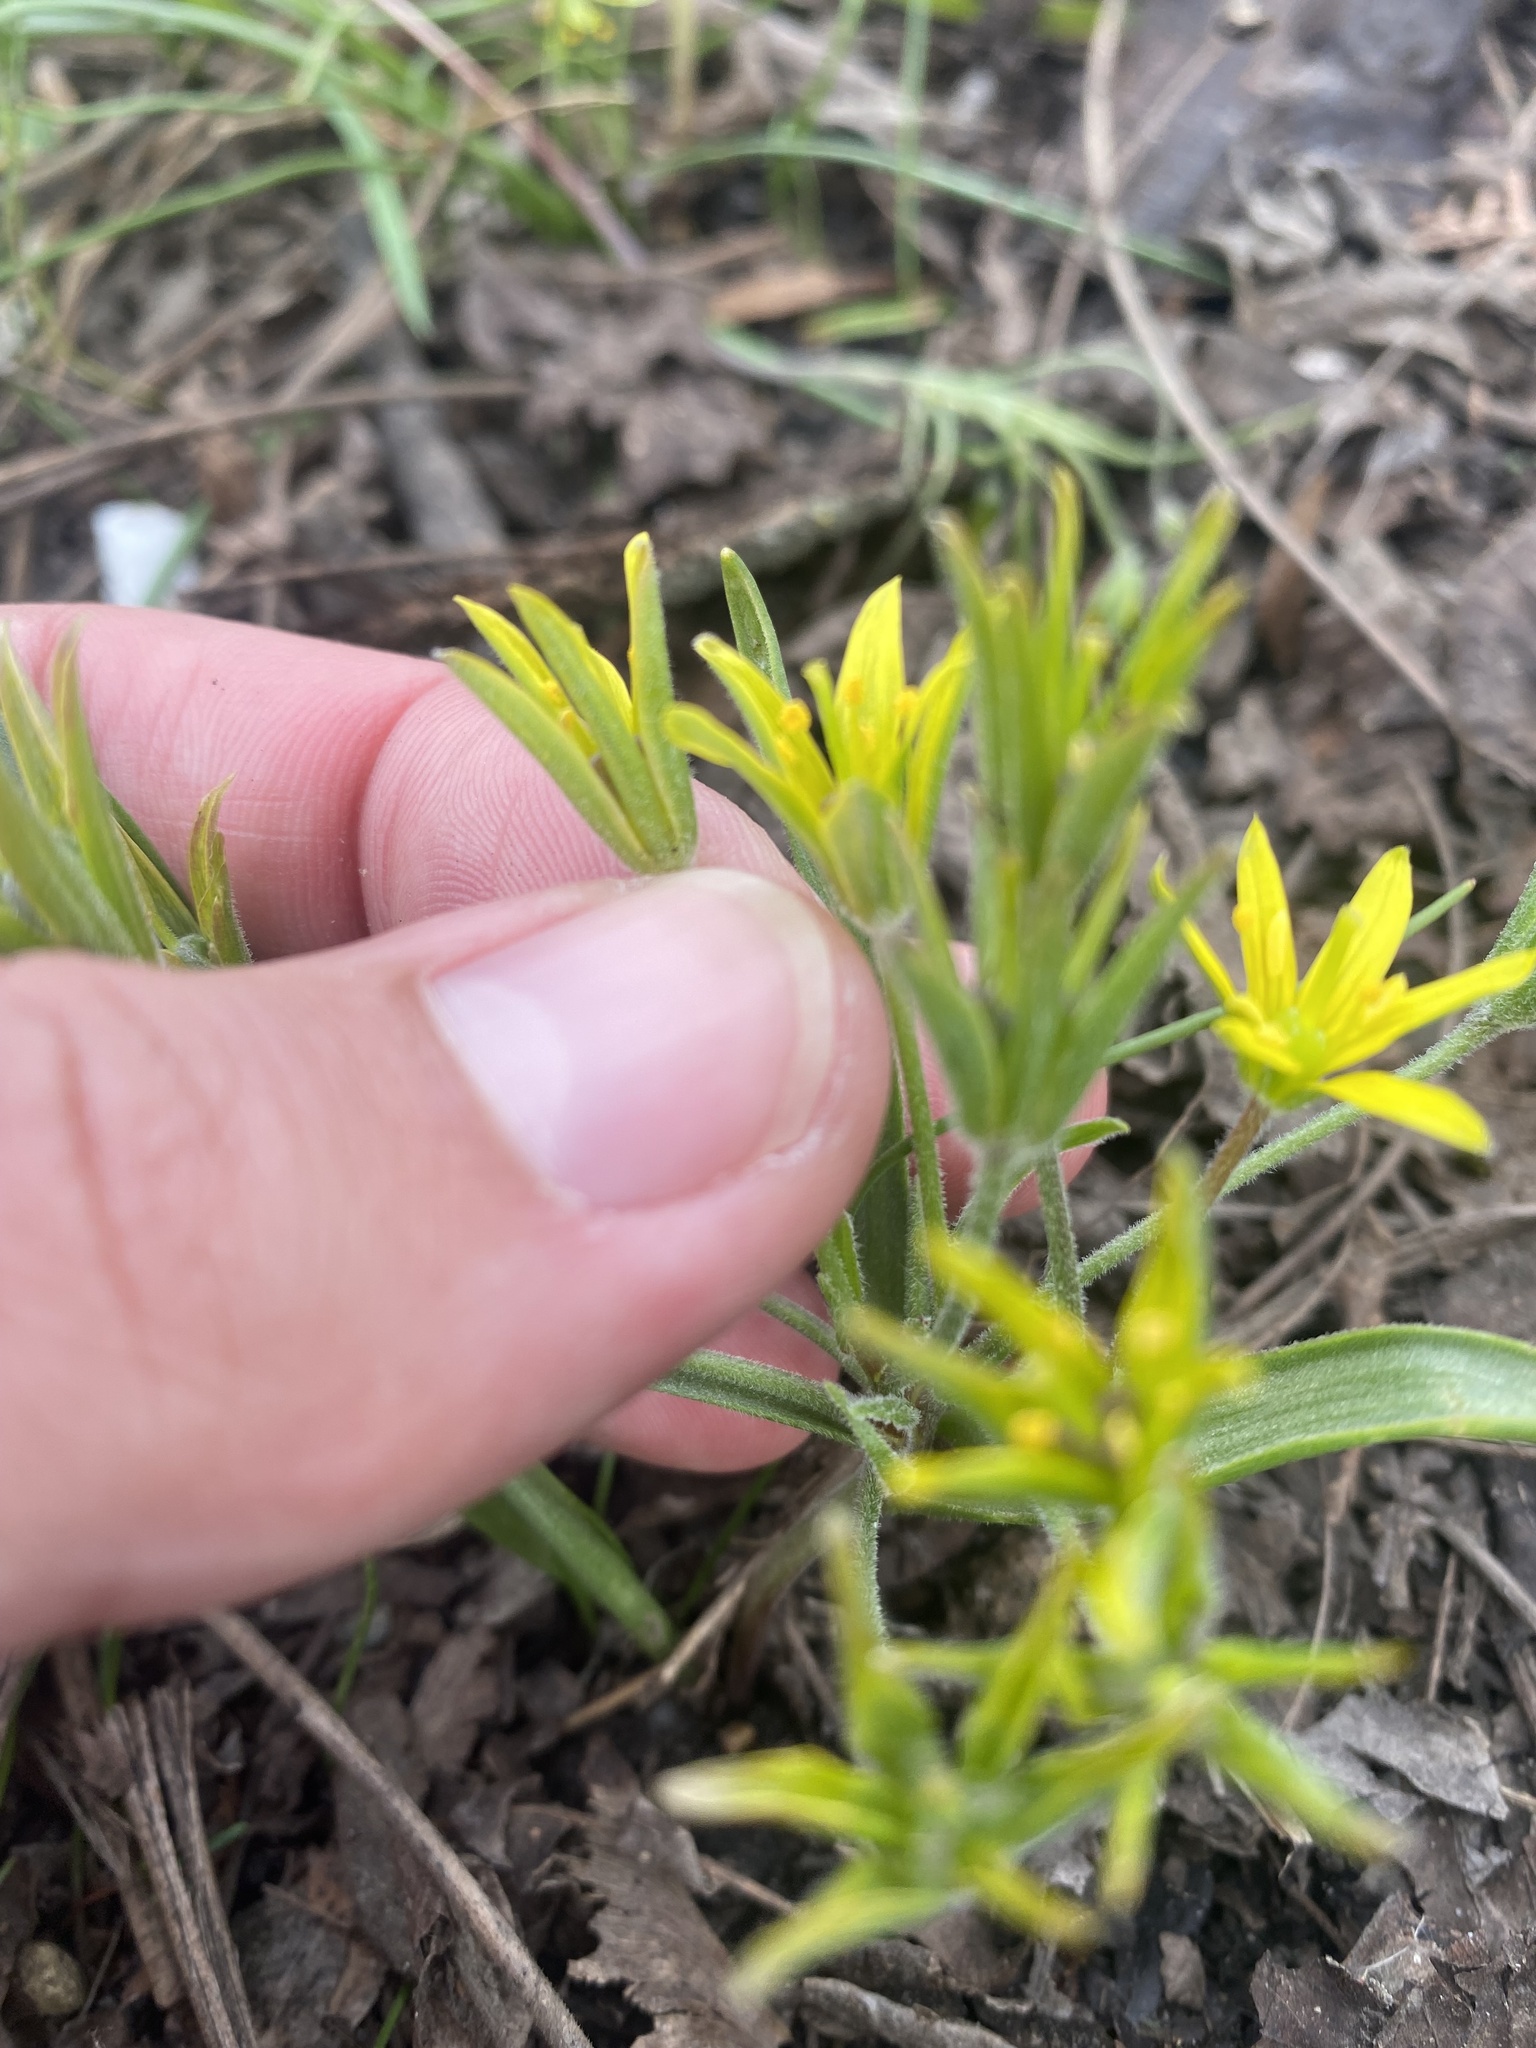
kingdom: Plantae
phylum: Tracheophyta
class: Liliopsida
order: Liliales
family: Liliaceae
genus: Gagea
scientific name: Gagea villosa
